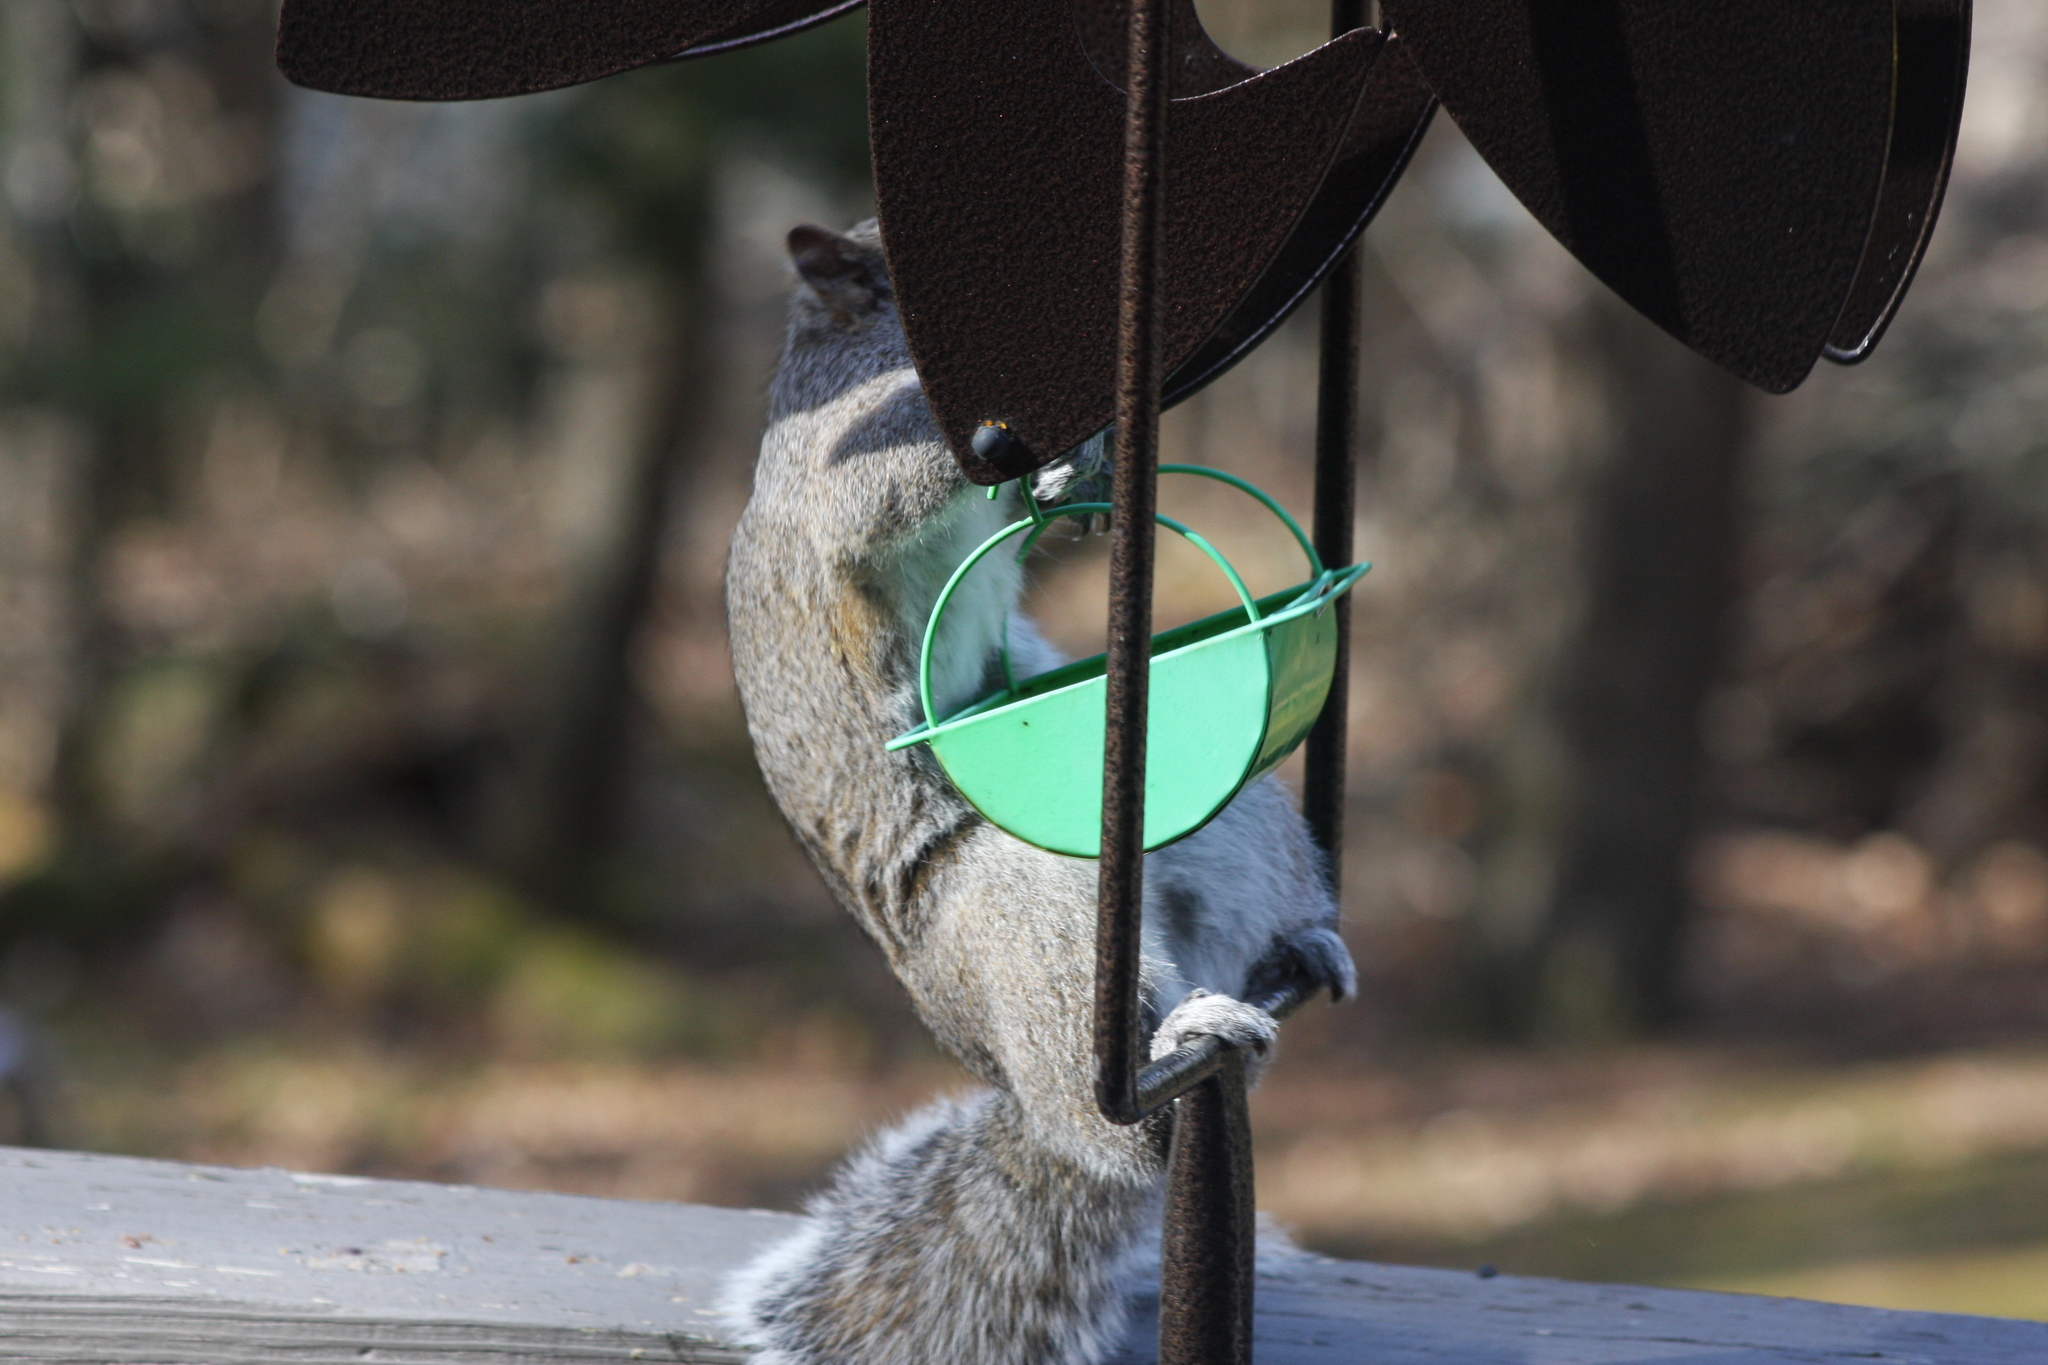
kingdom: Animalia
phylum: Chordata
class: Mammalia
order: Rodentia
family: Sciuridae
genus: Sciurus
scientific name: Sciurus carolinensis
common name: Eastern gray squirrel
